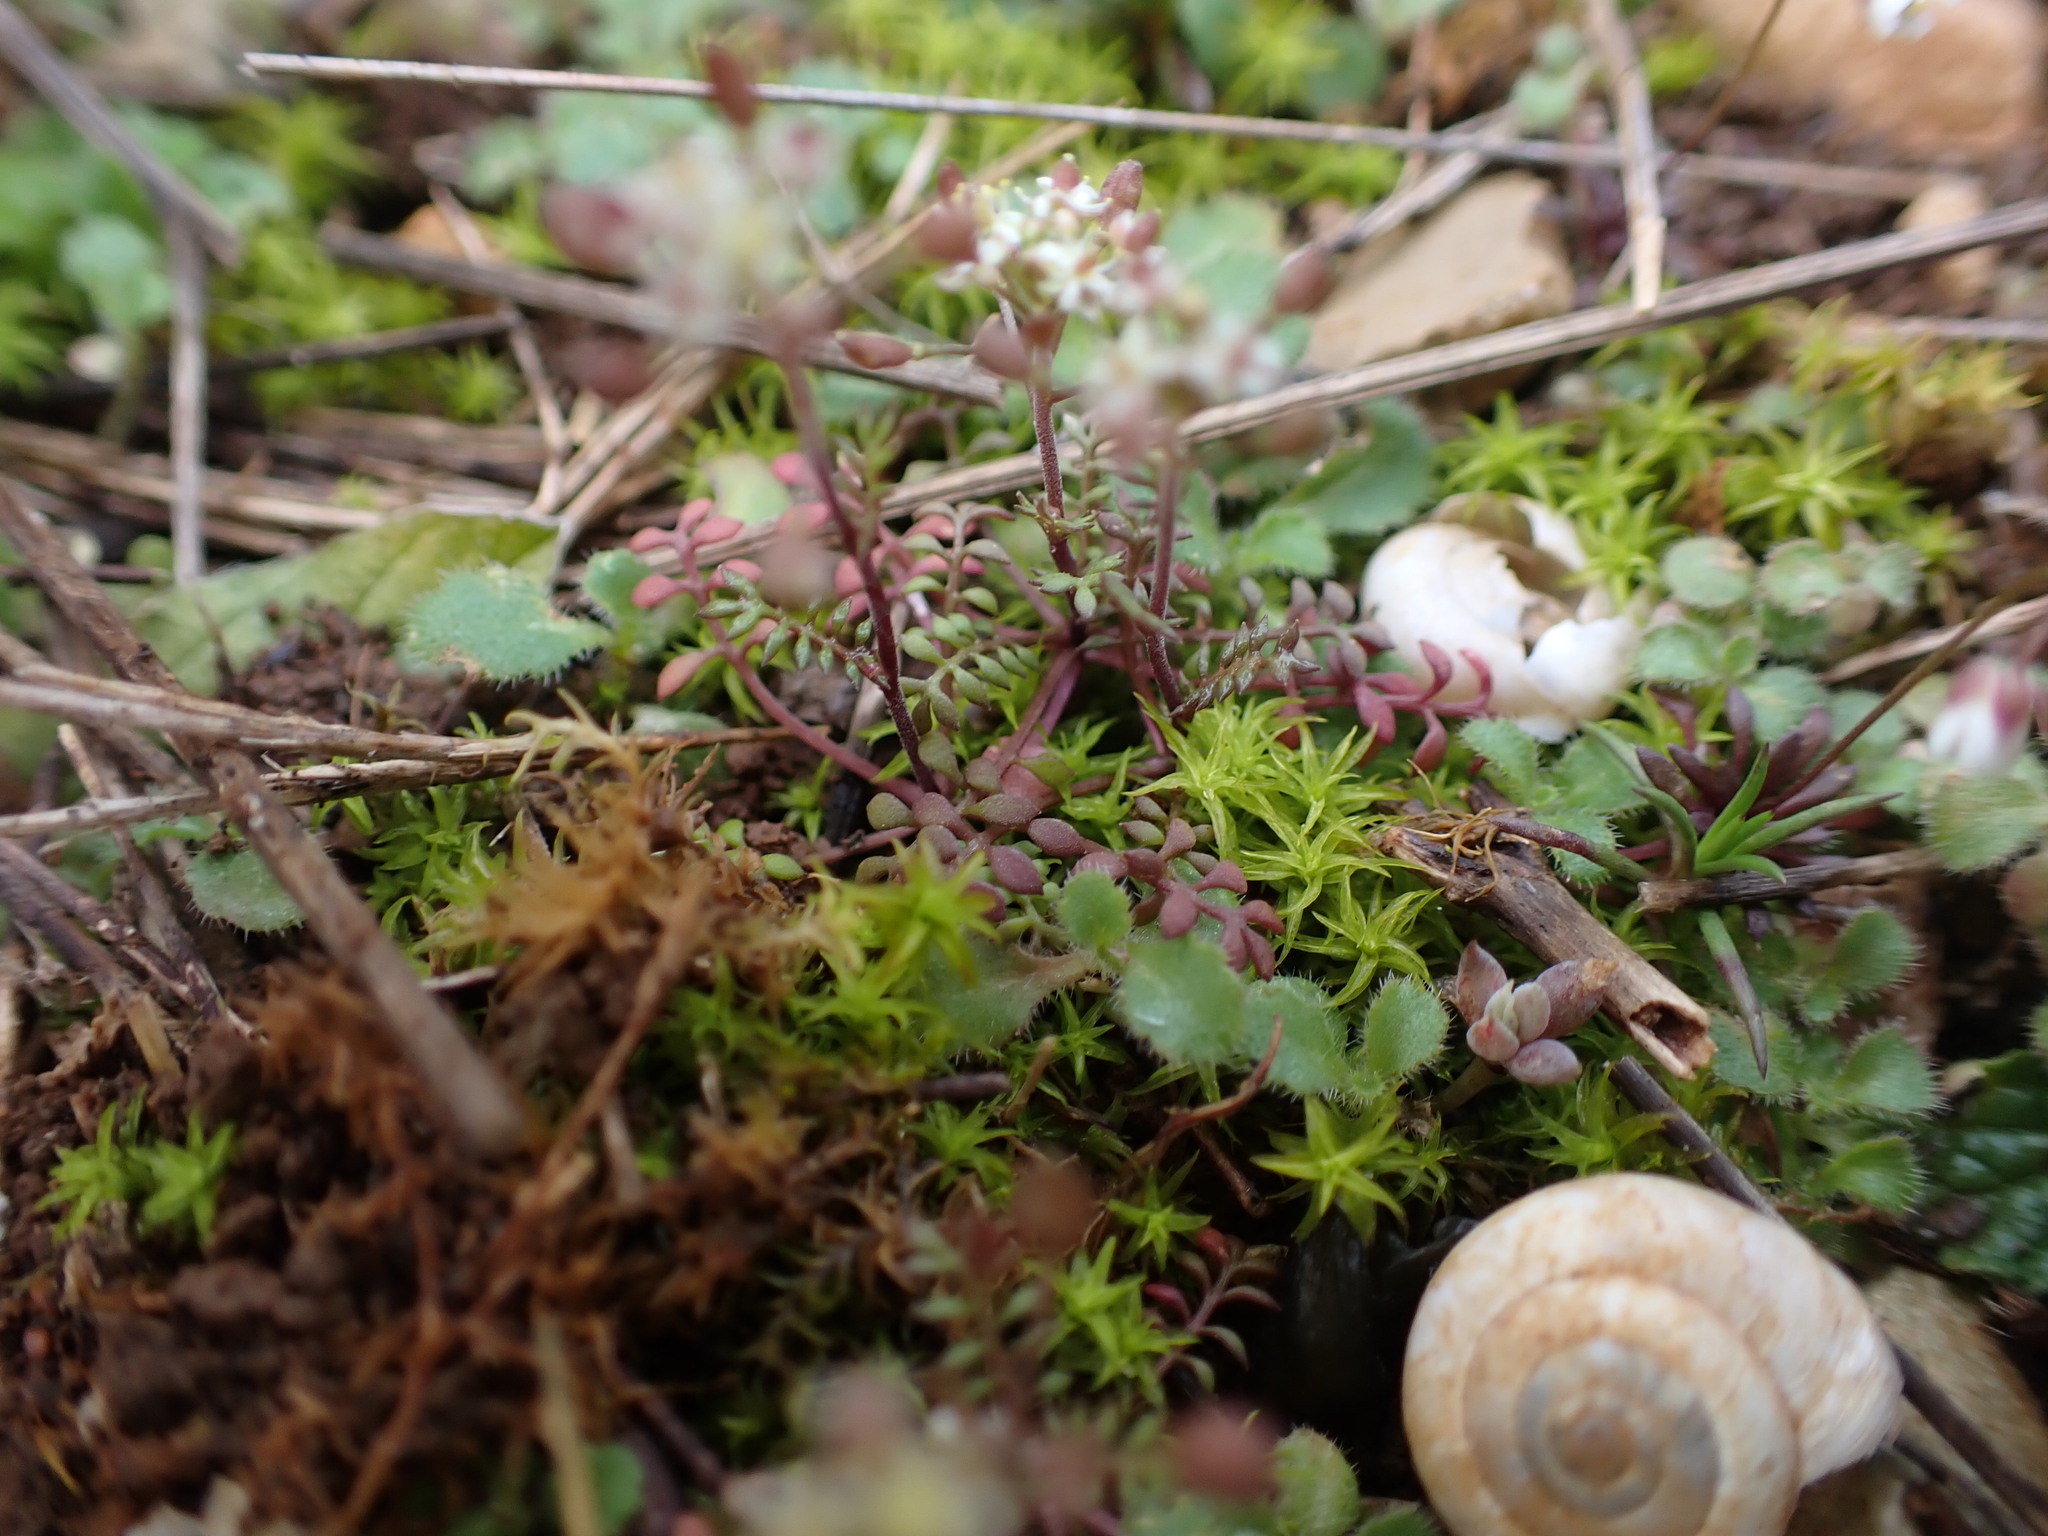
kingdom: Plantae
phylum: Tracheophyta
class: Magnoliopsida
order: Brassicales
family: Brassicaceae
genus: Hornungia
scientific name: Hornungia petraea
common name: Hutchinsia
